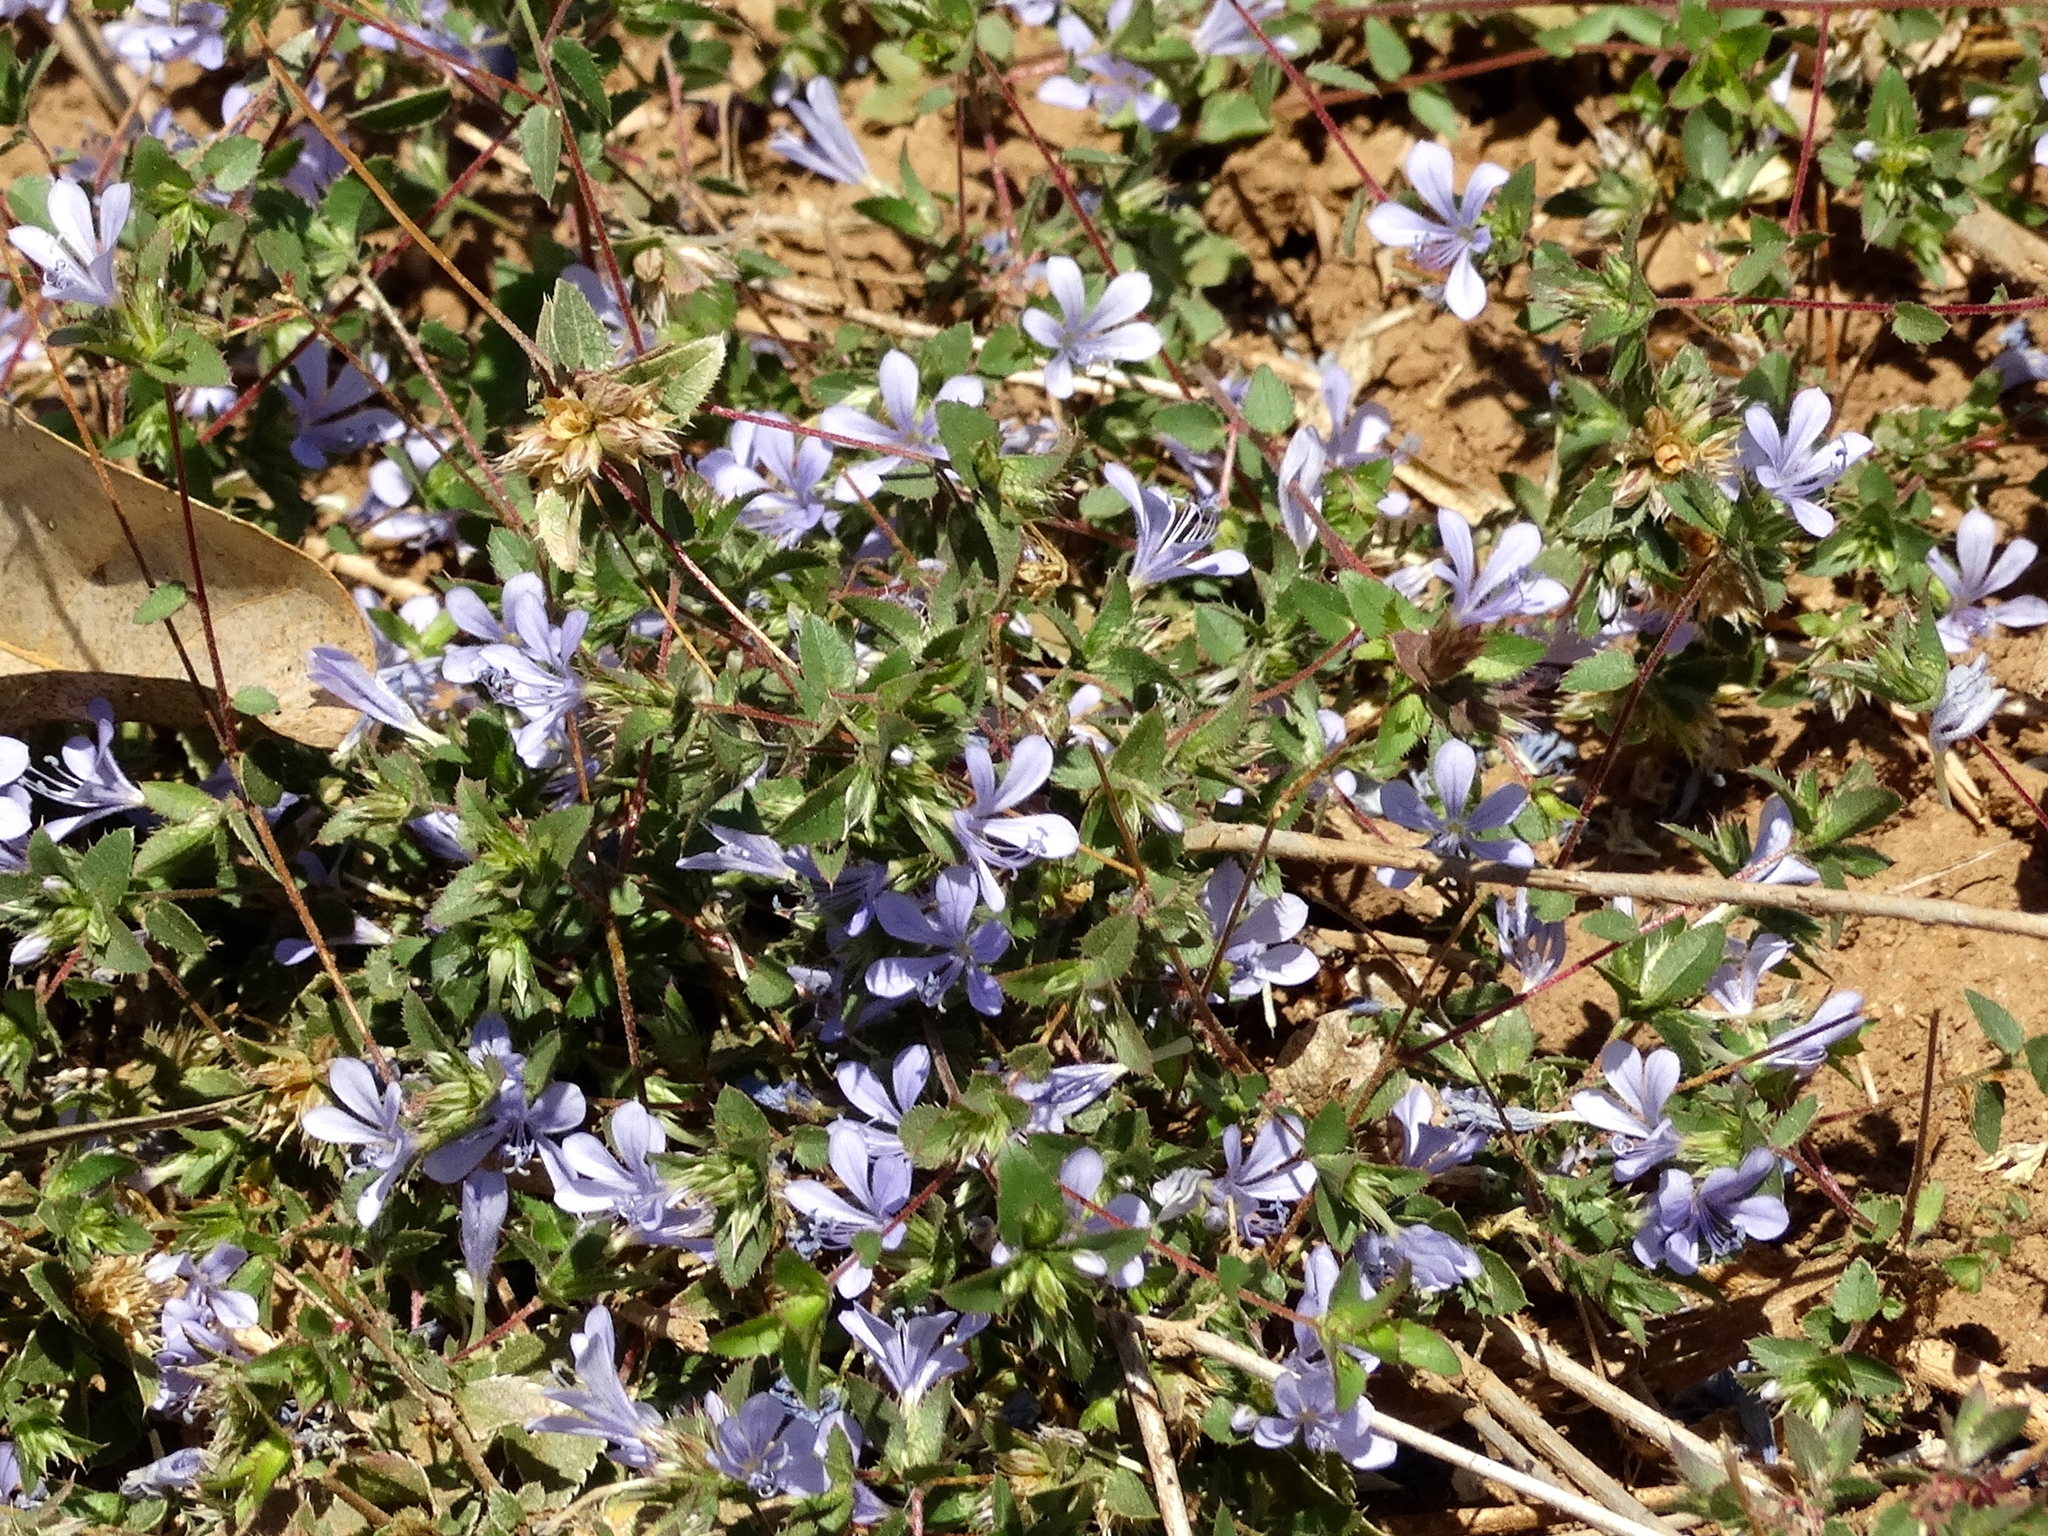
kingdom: Plantae
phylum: Tracheophyta
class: Magnoliopsida
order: Ericales
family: Polemoniaceae
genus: Loeselia
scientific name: Loeselia ciliata
